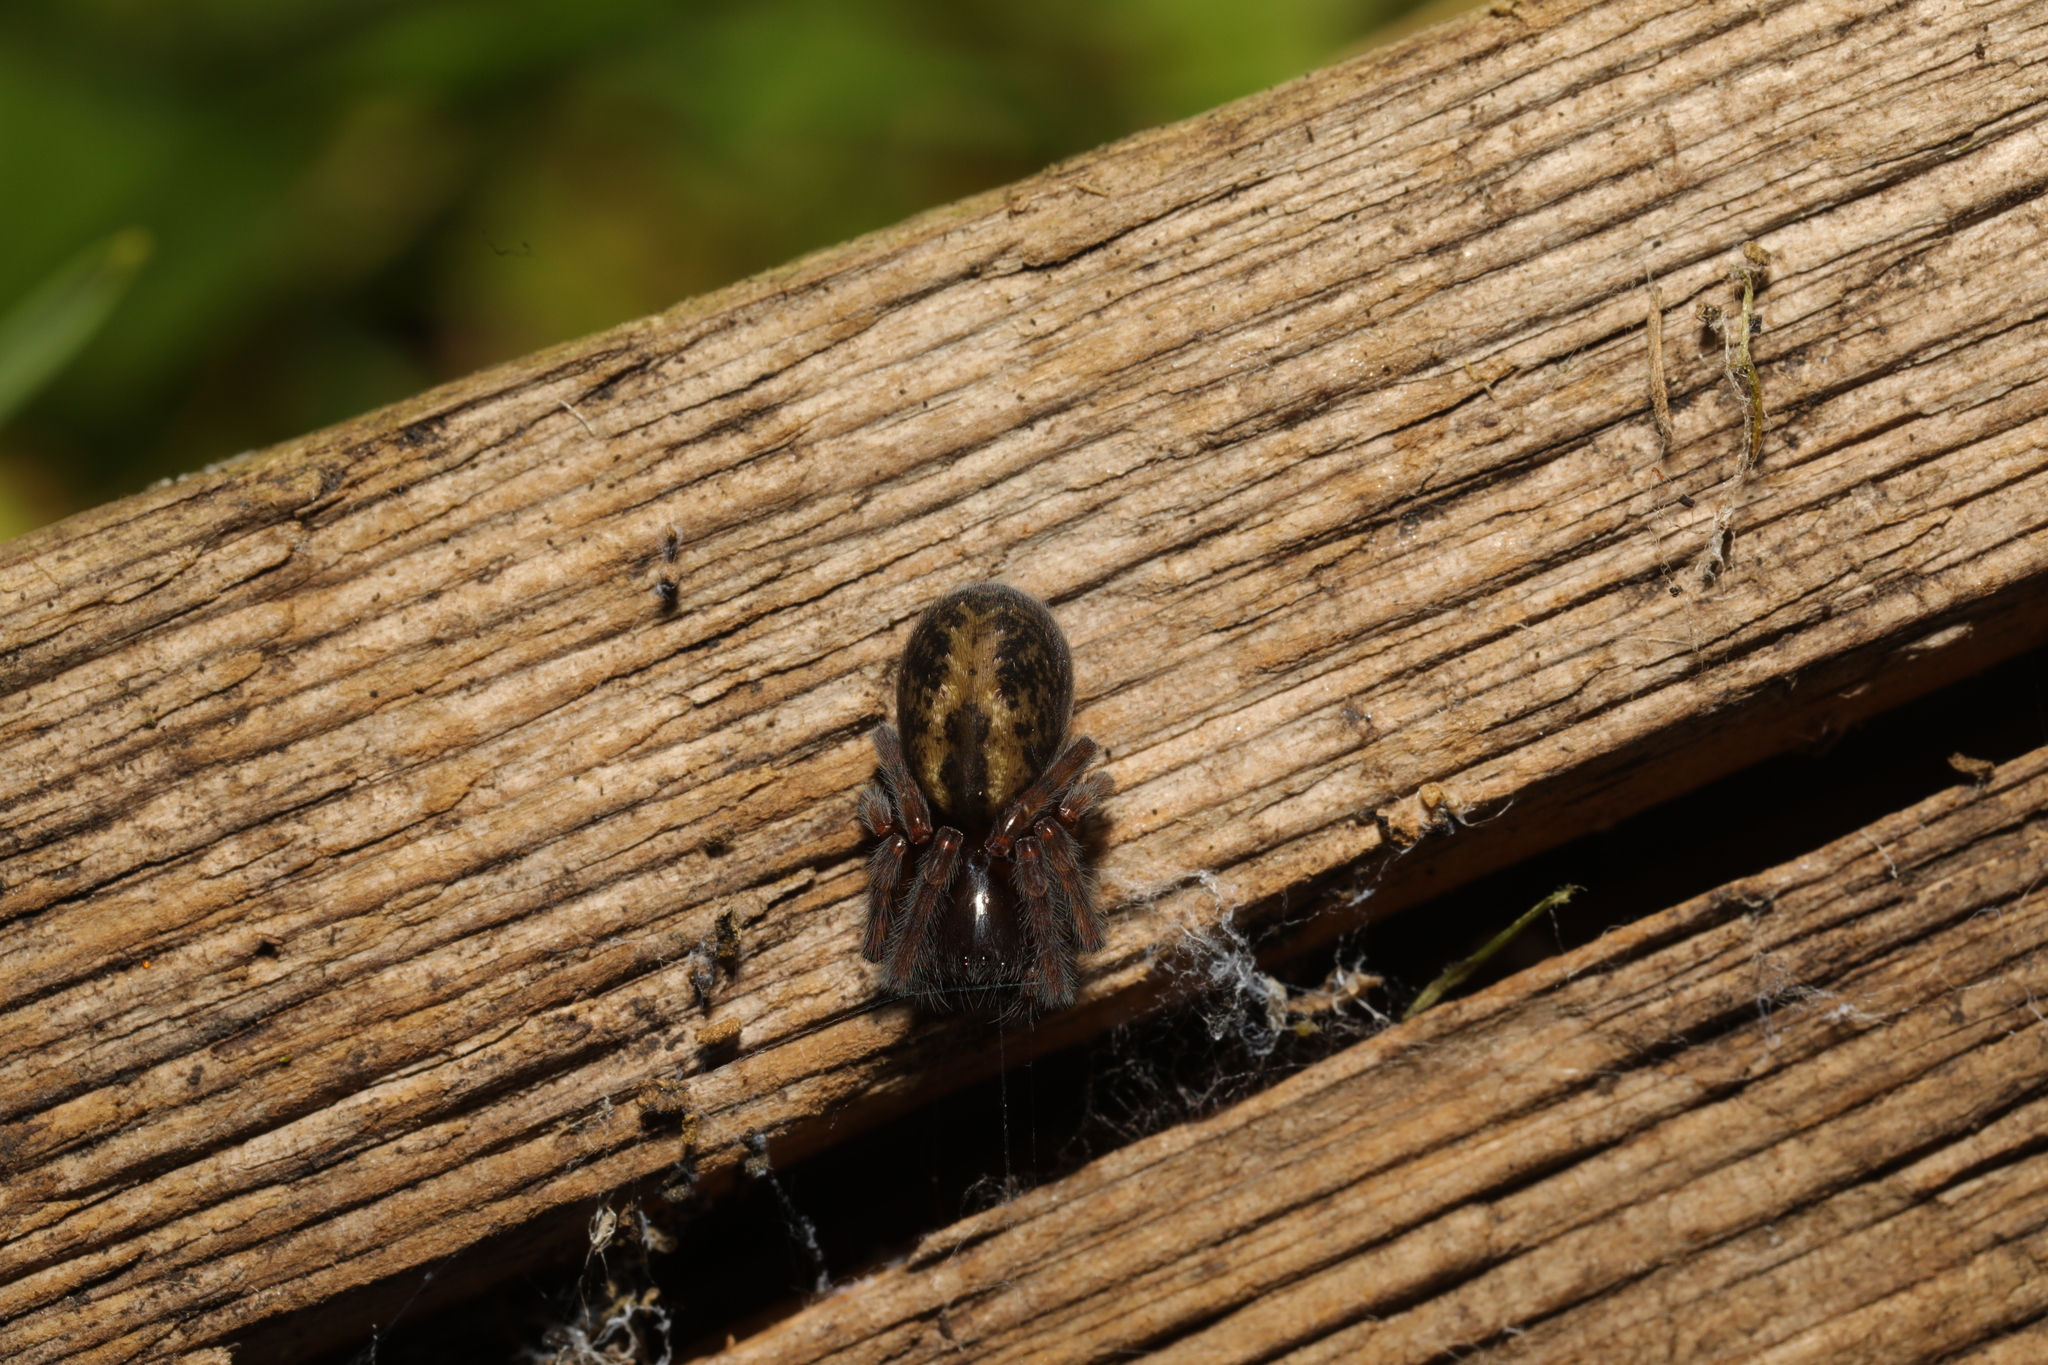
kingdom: Animalia
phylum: Arthropoda
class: Arachnida
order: Araneae
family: Amaurobiidae
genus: Amaurobius
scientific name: Amaurobius
